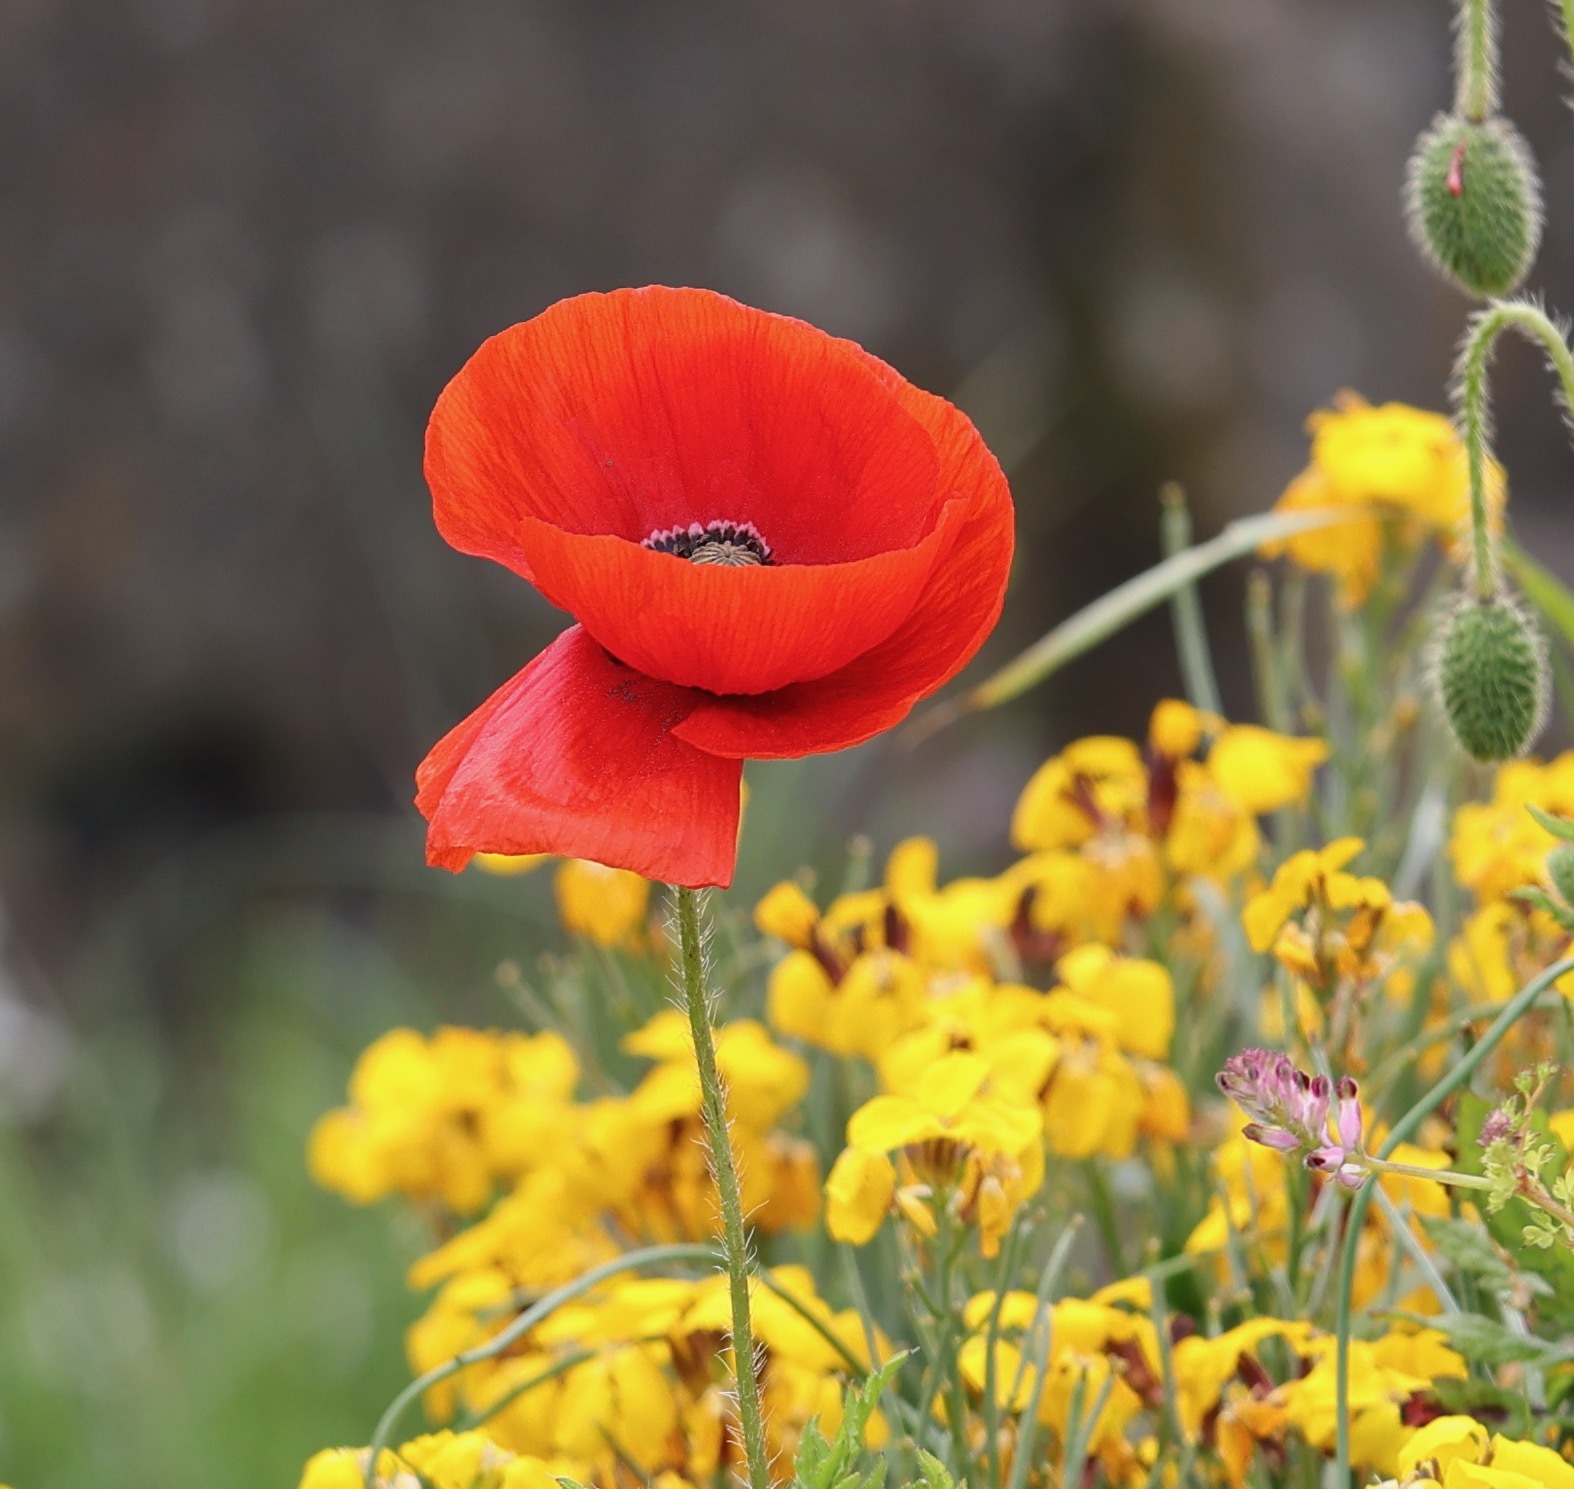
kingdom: Plantae
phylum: Tracheophyta
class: Magnoliopsida
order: Ranunculales
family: Papaveraceae
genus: Papaver
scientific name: Papaver rhoeas
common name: Corn poppy
